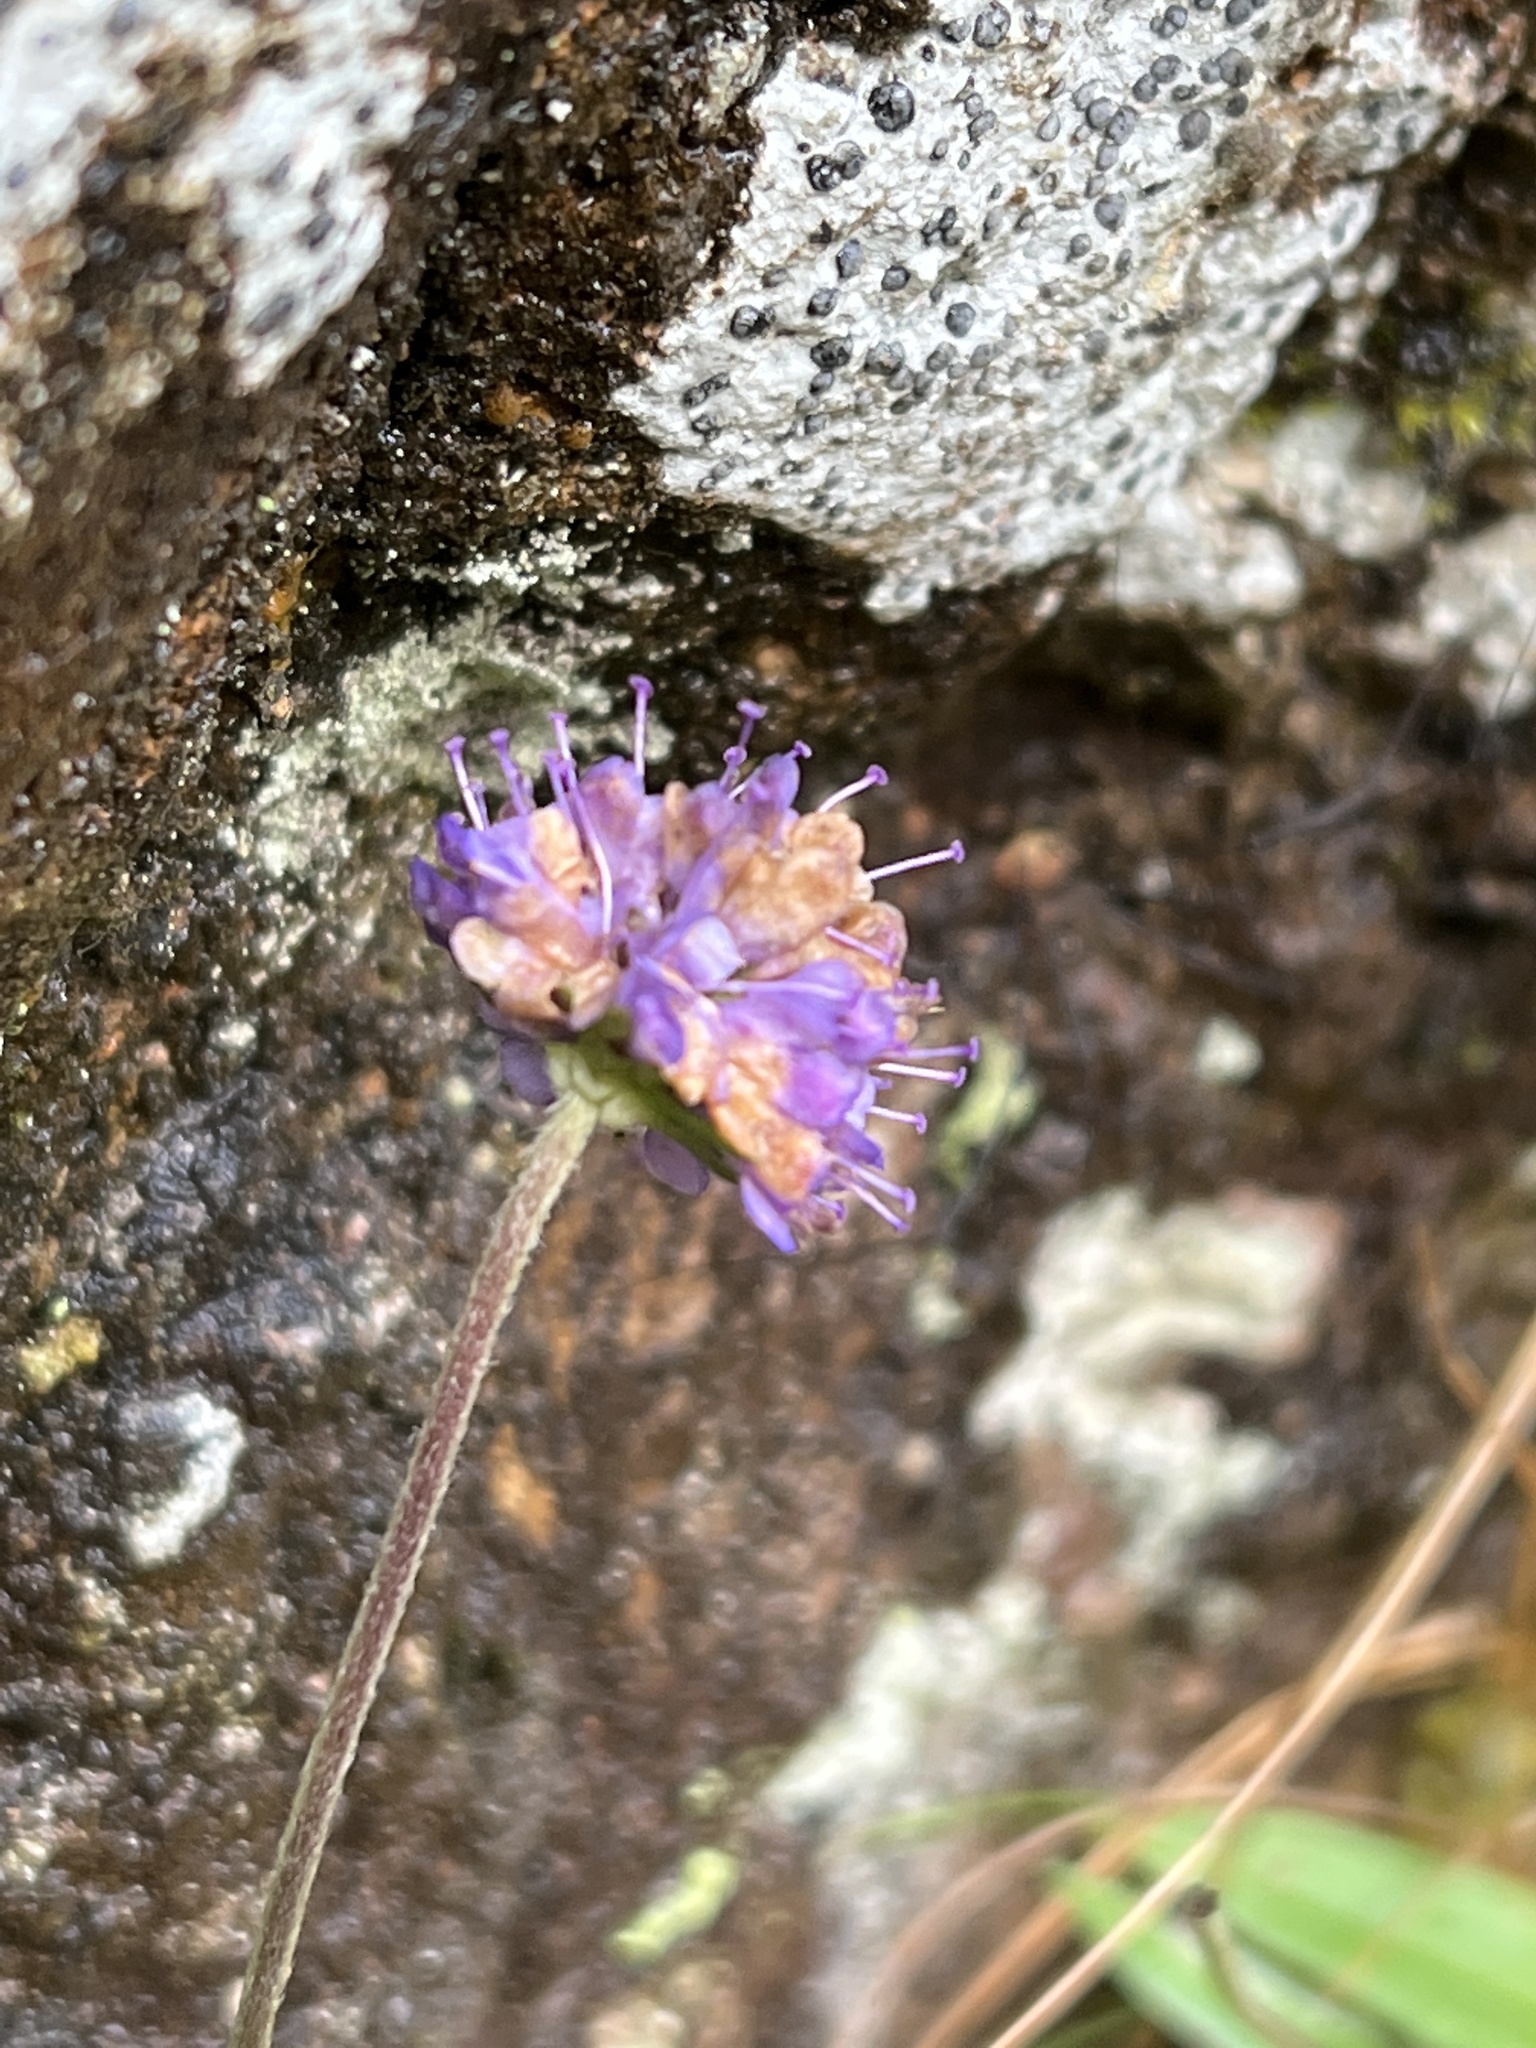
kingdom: Plantae
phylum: Tracheophyta
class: Magnoliopsida
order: Dipsacales
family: Caprifoliaceae
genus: Succisa
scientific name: Succisa pratensis
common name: Devil's-bit
